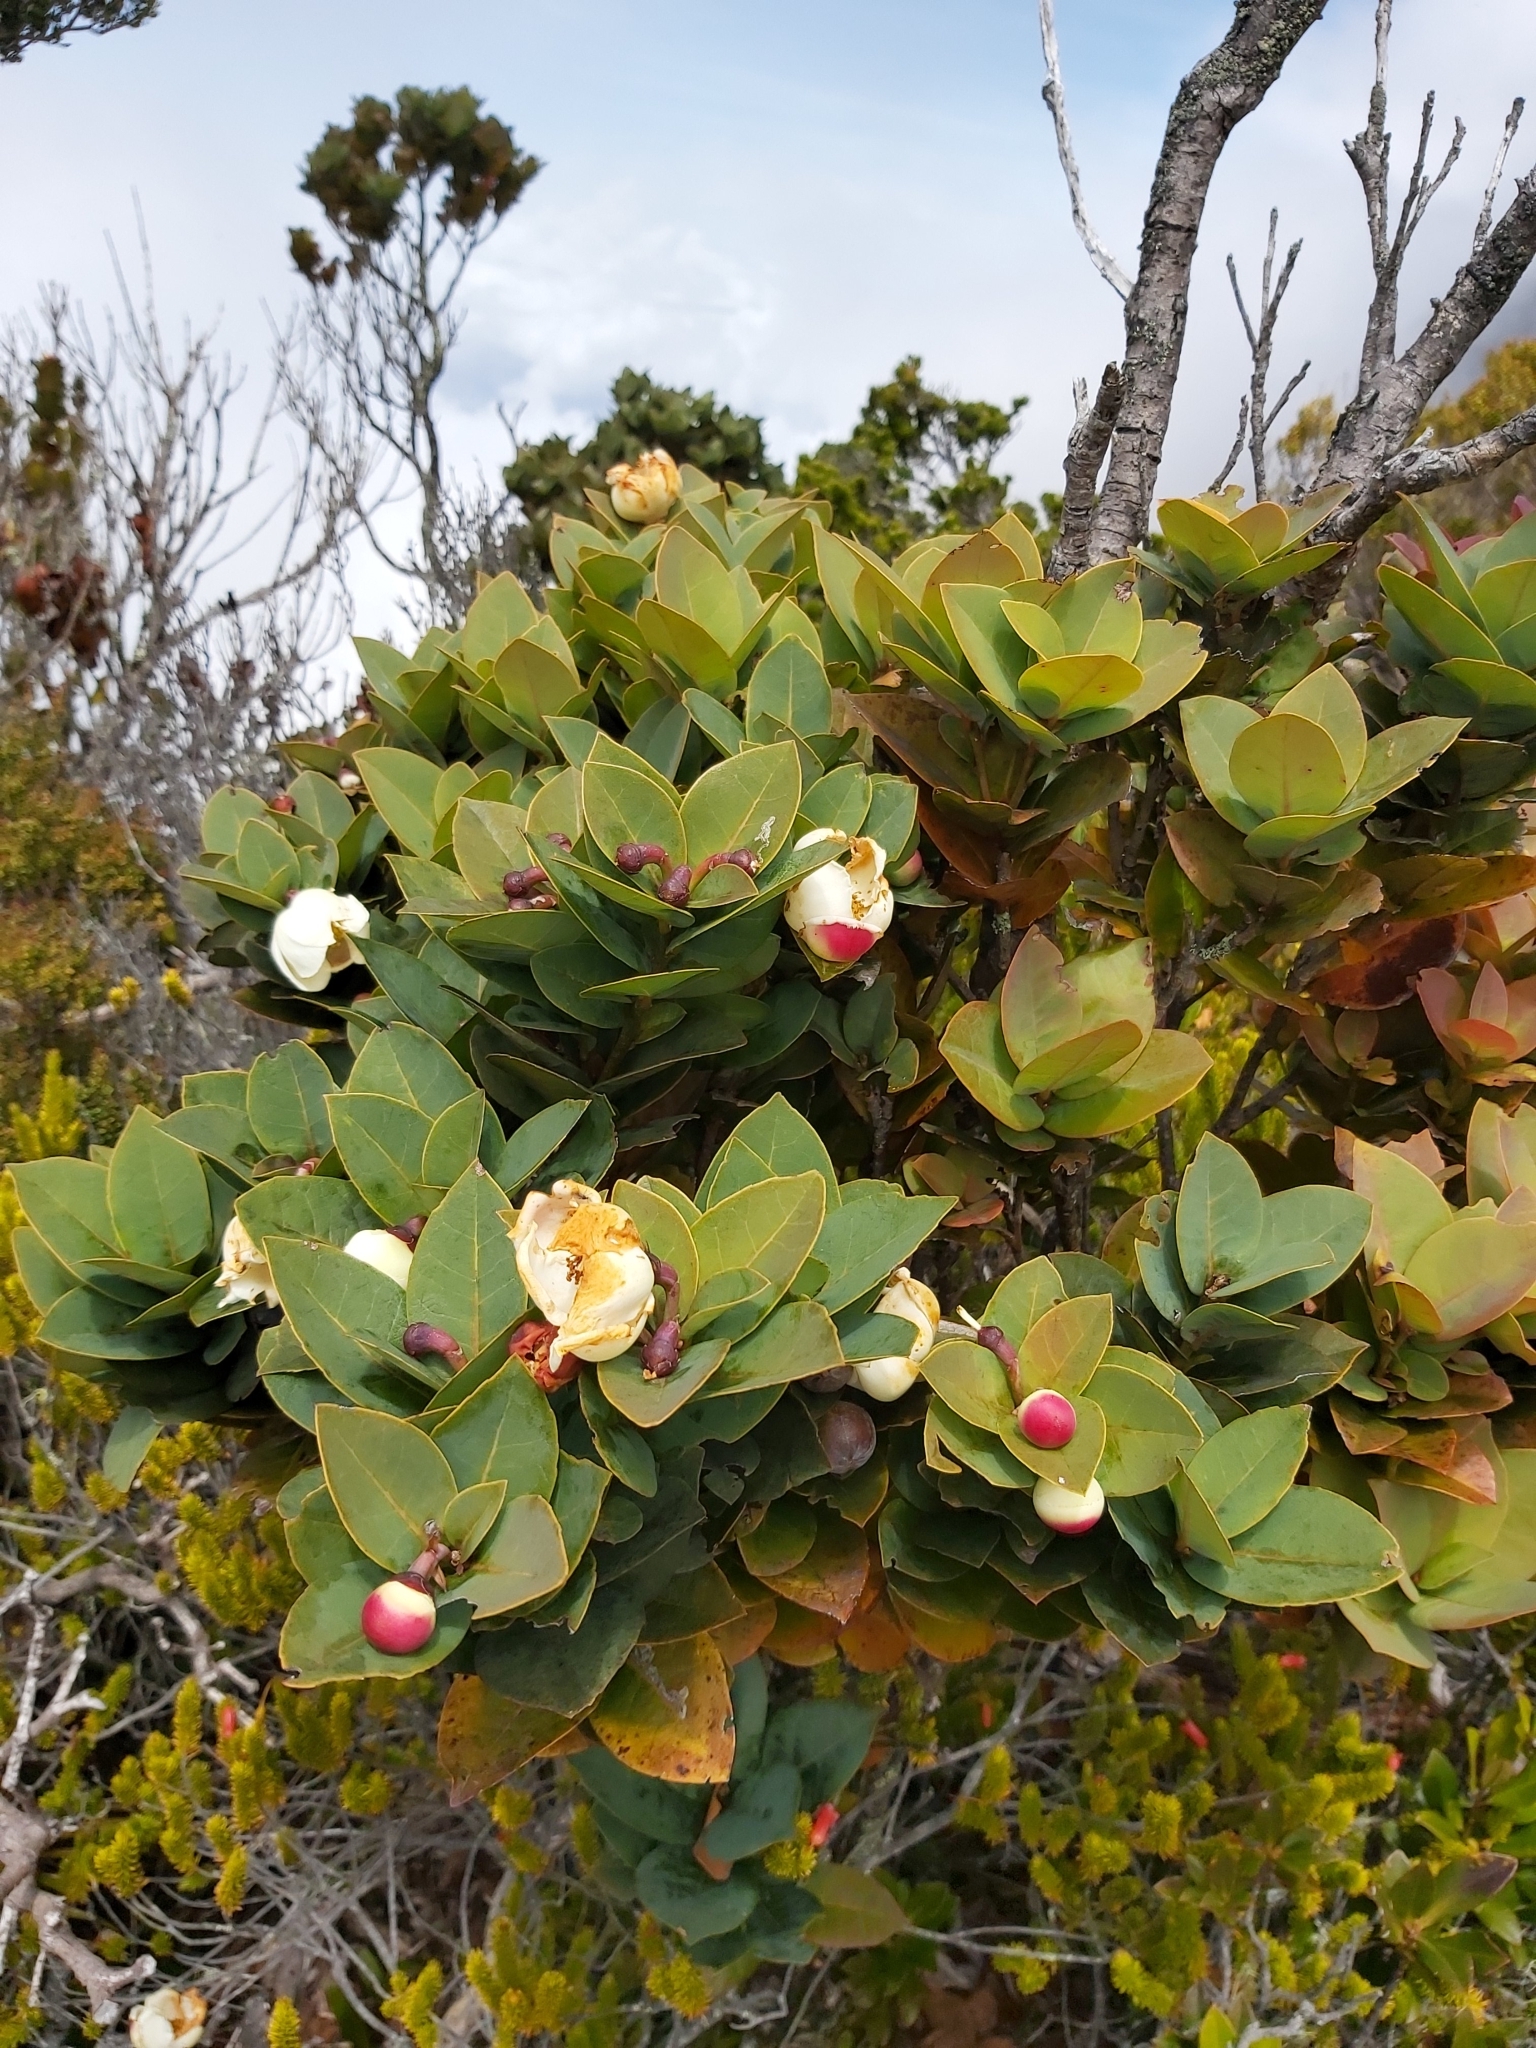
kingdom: Plantae
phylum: Tracheophyta
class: Magnoliopsida
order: Ericales
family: Theaceae
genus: Schima
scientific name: Schima brevifolia
